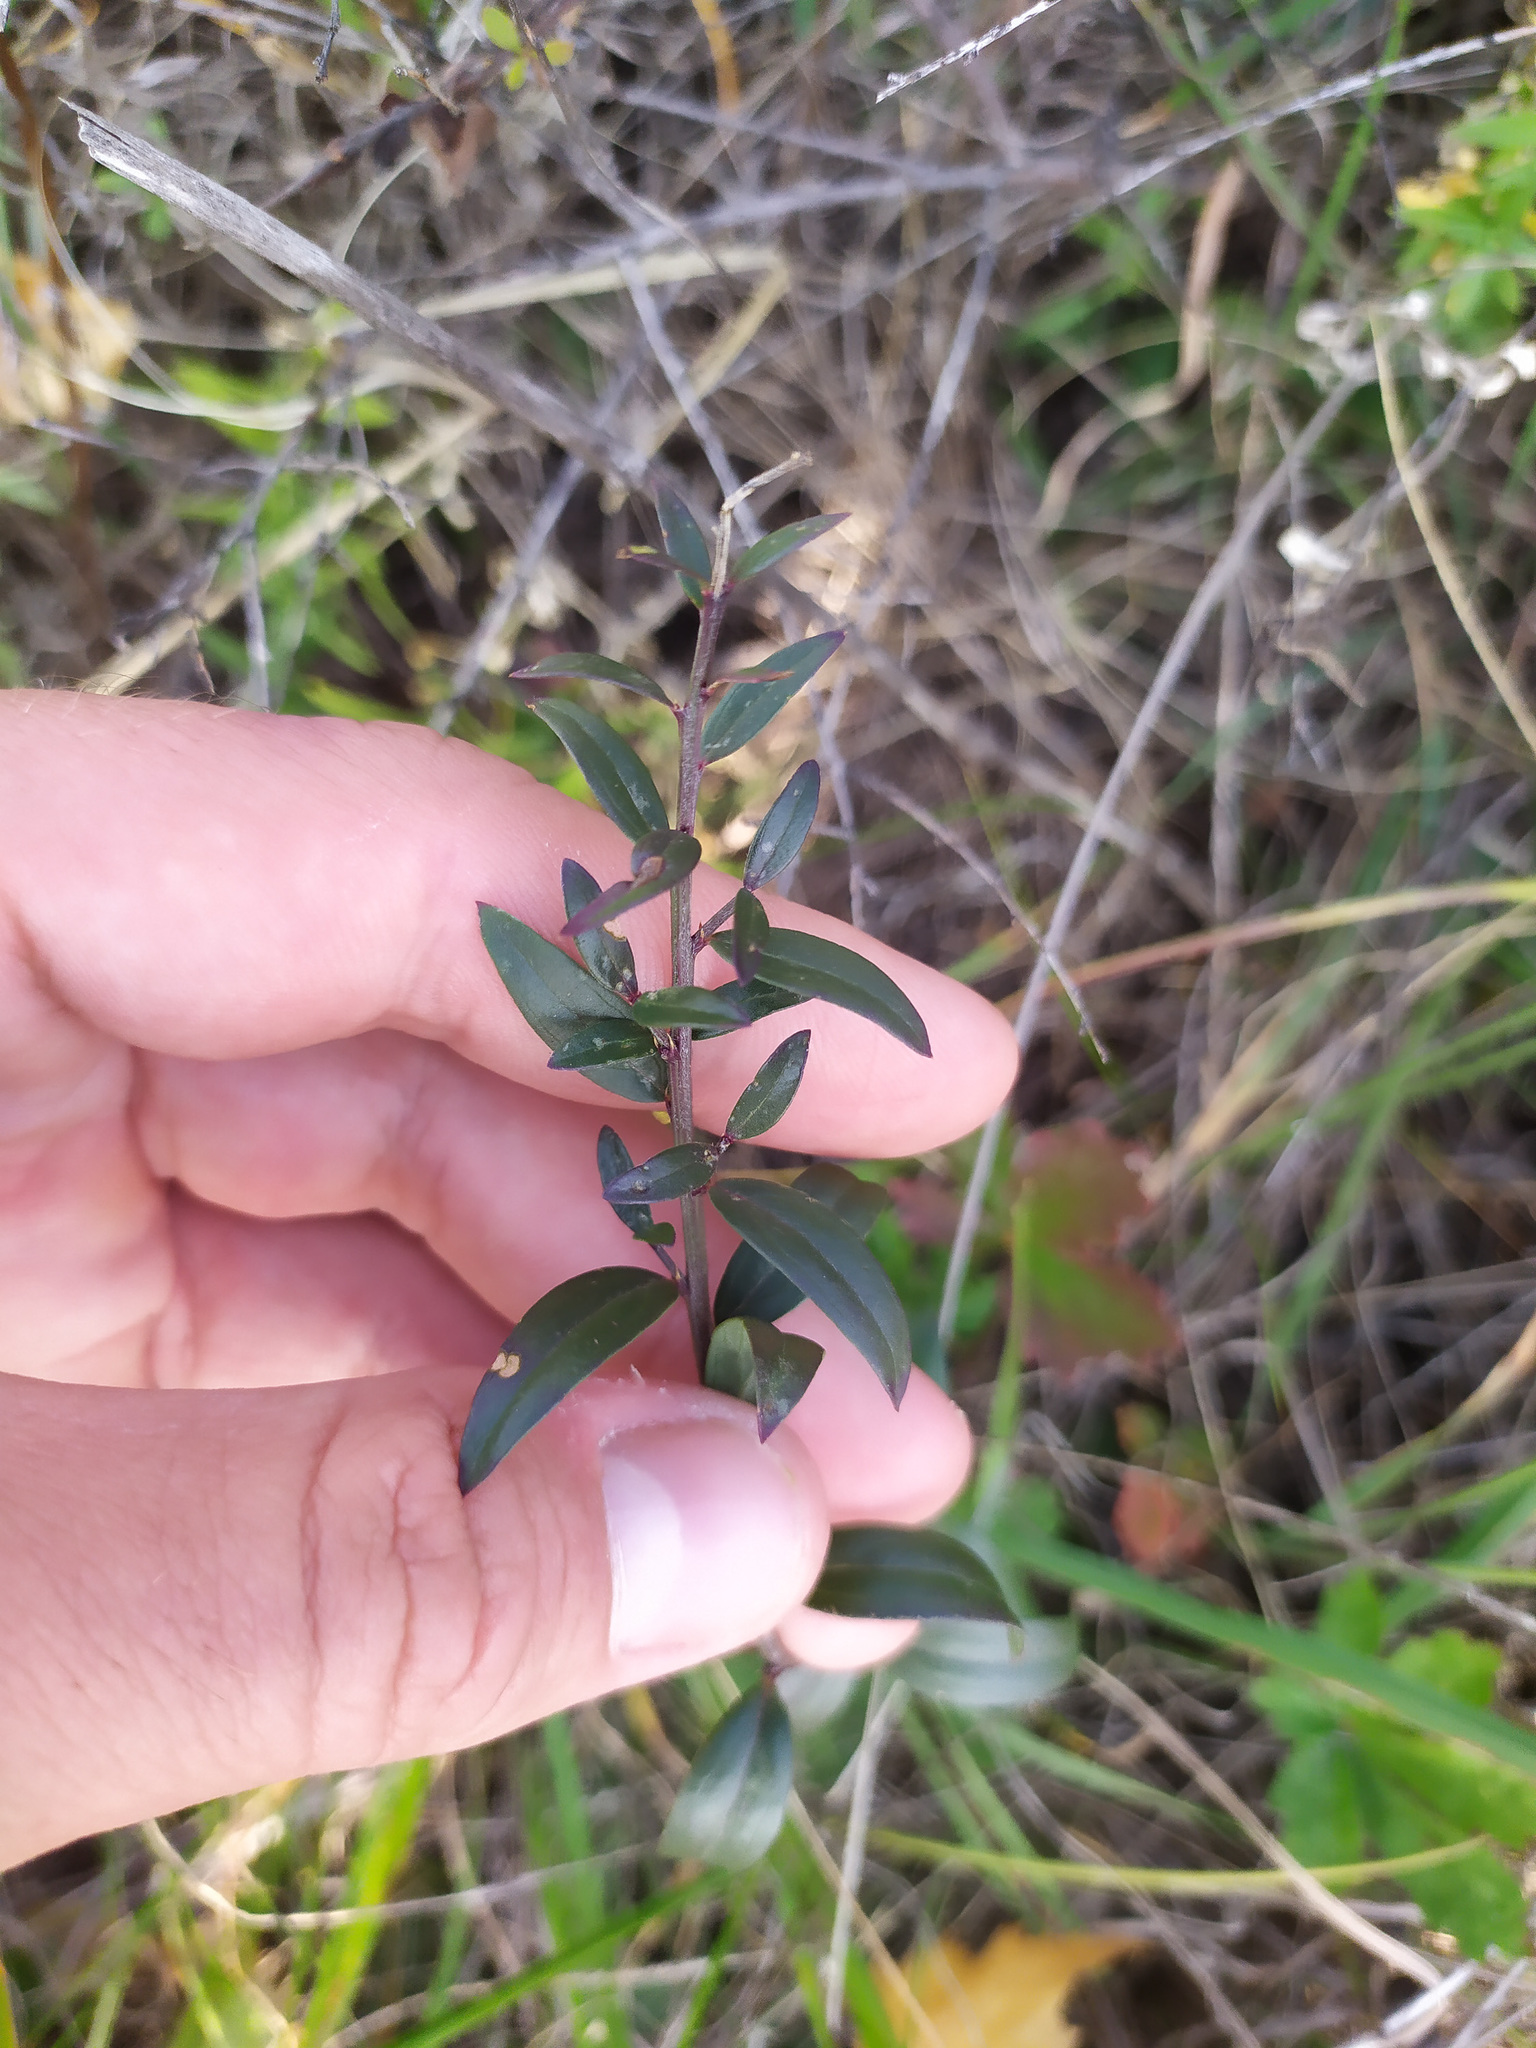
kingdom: Plantae
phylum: Tracheophyta
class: Magnoliopsida
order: Fabales
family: Fabaceae
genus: Genista
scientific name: Genista tinctoria
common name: Dyer's greenweed
